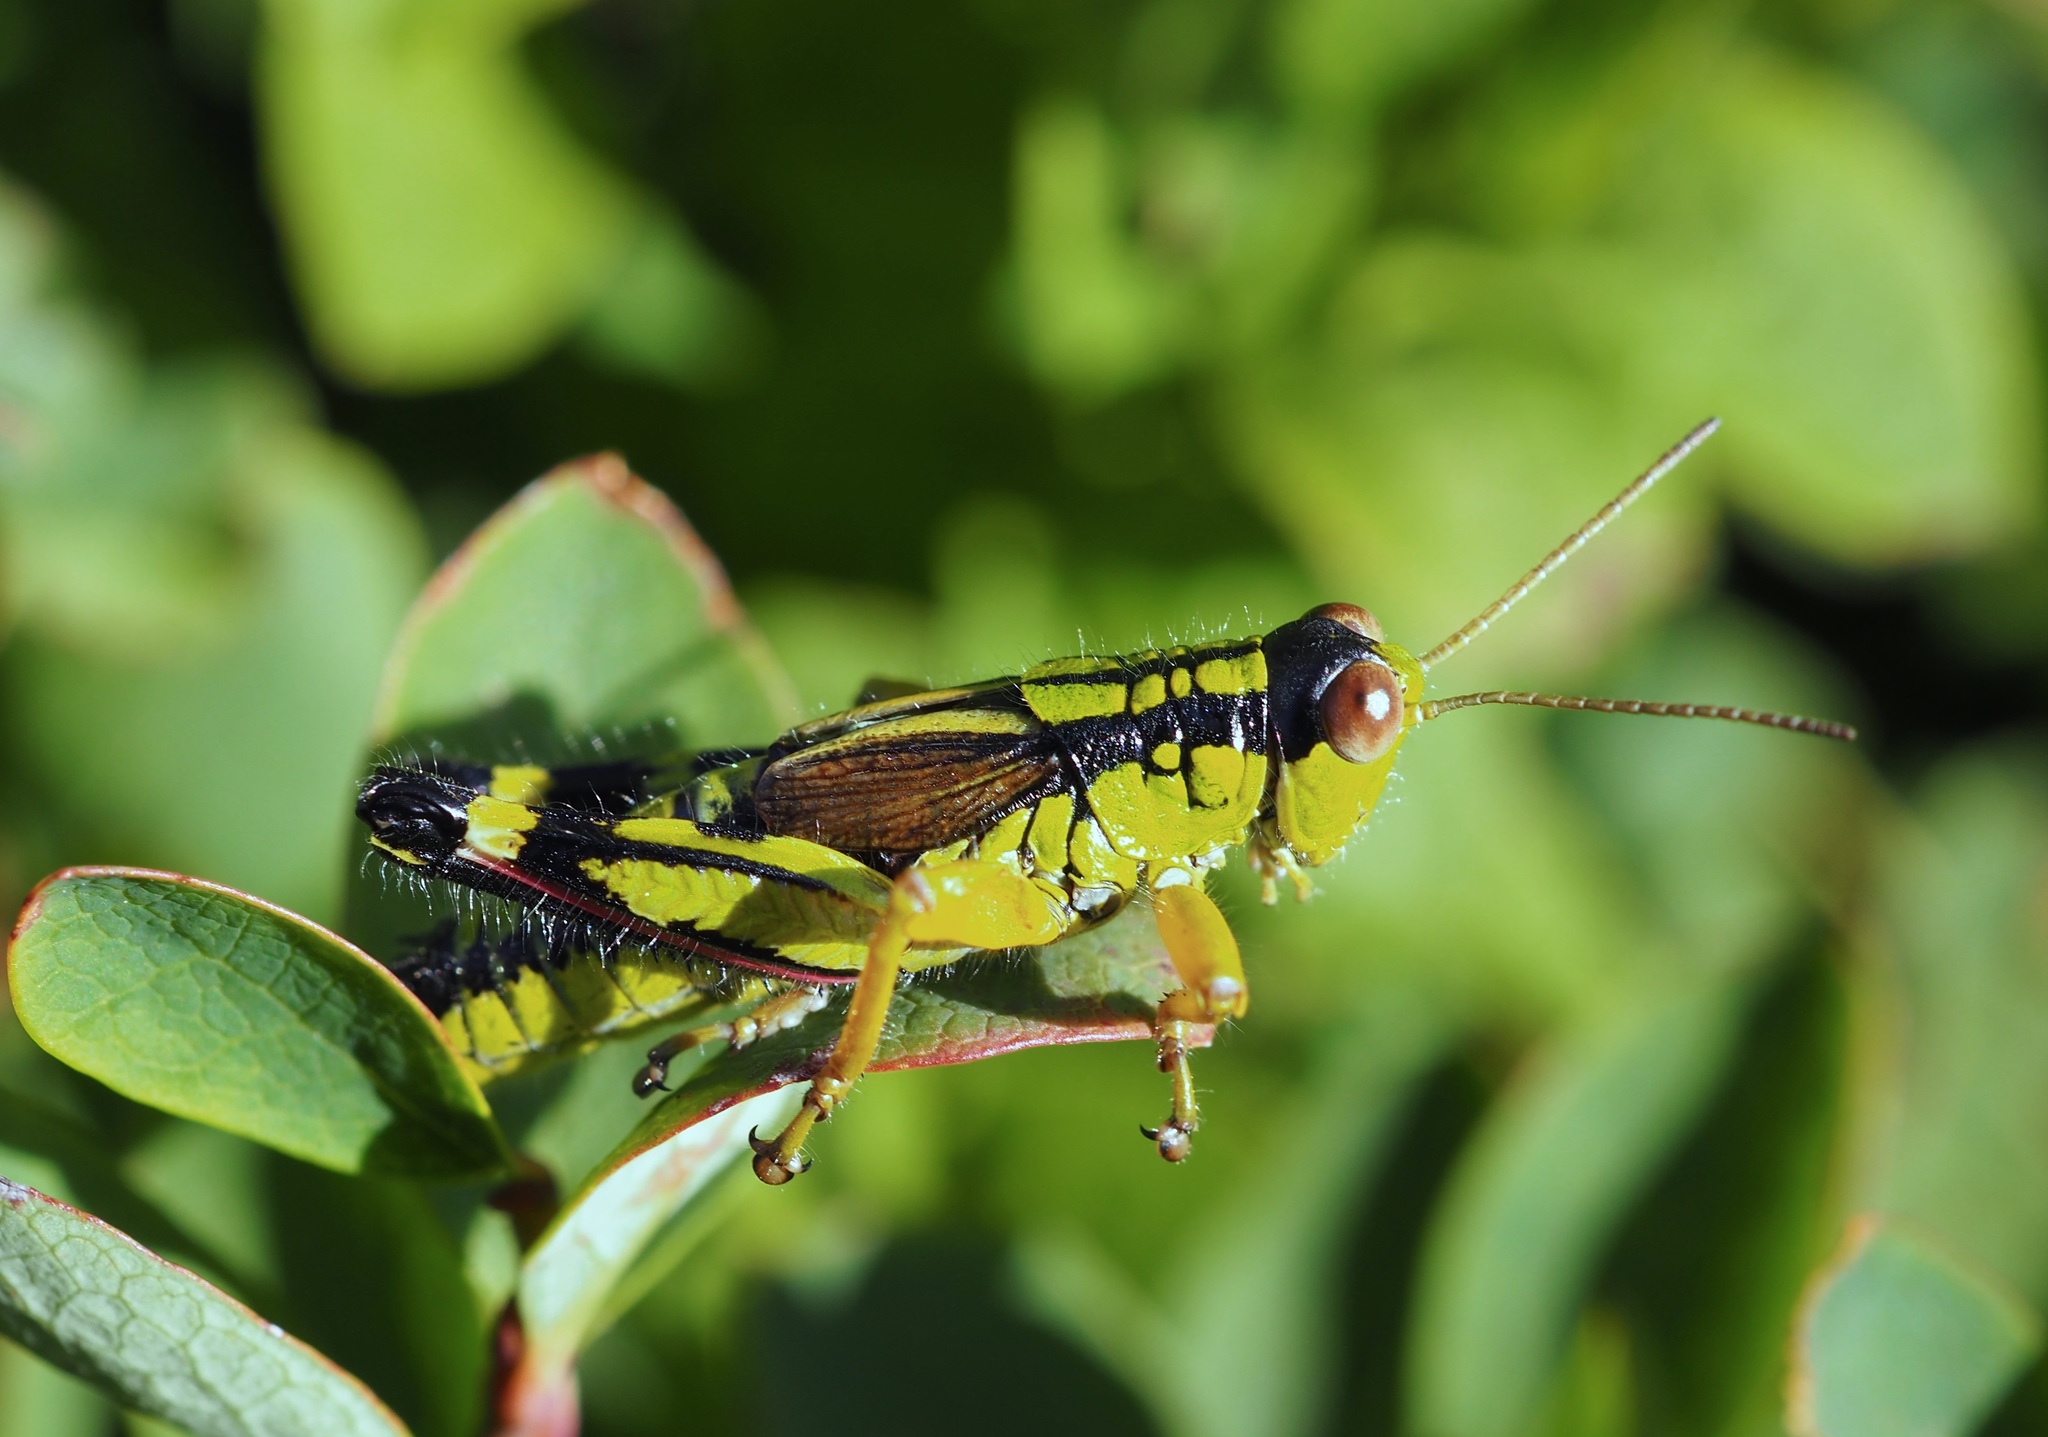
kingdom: Animalia
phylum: Arthropoda
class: Insecta
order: Orthoptera
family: Acrididae
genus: Miramella
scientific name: Miramella frinias
